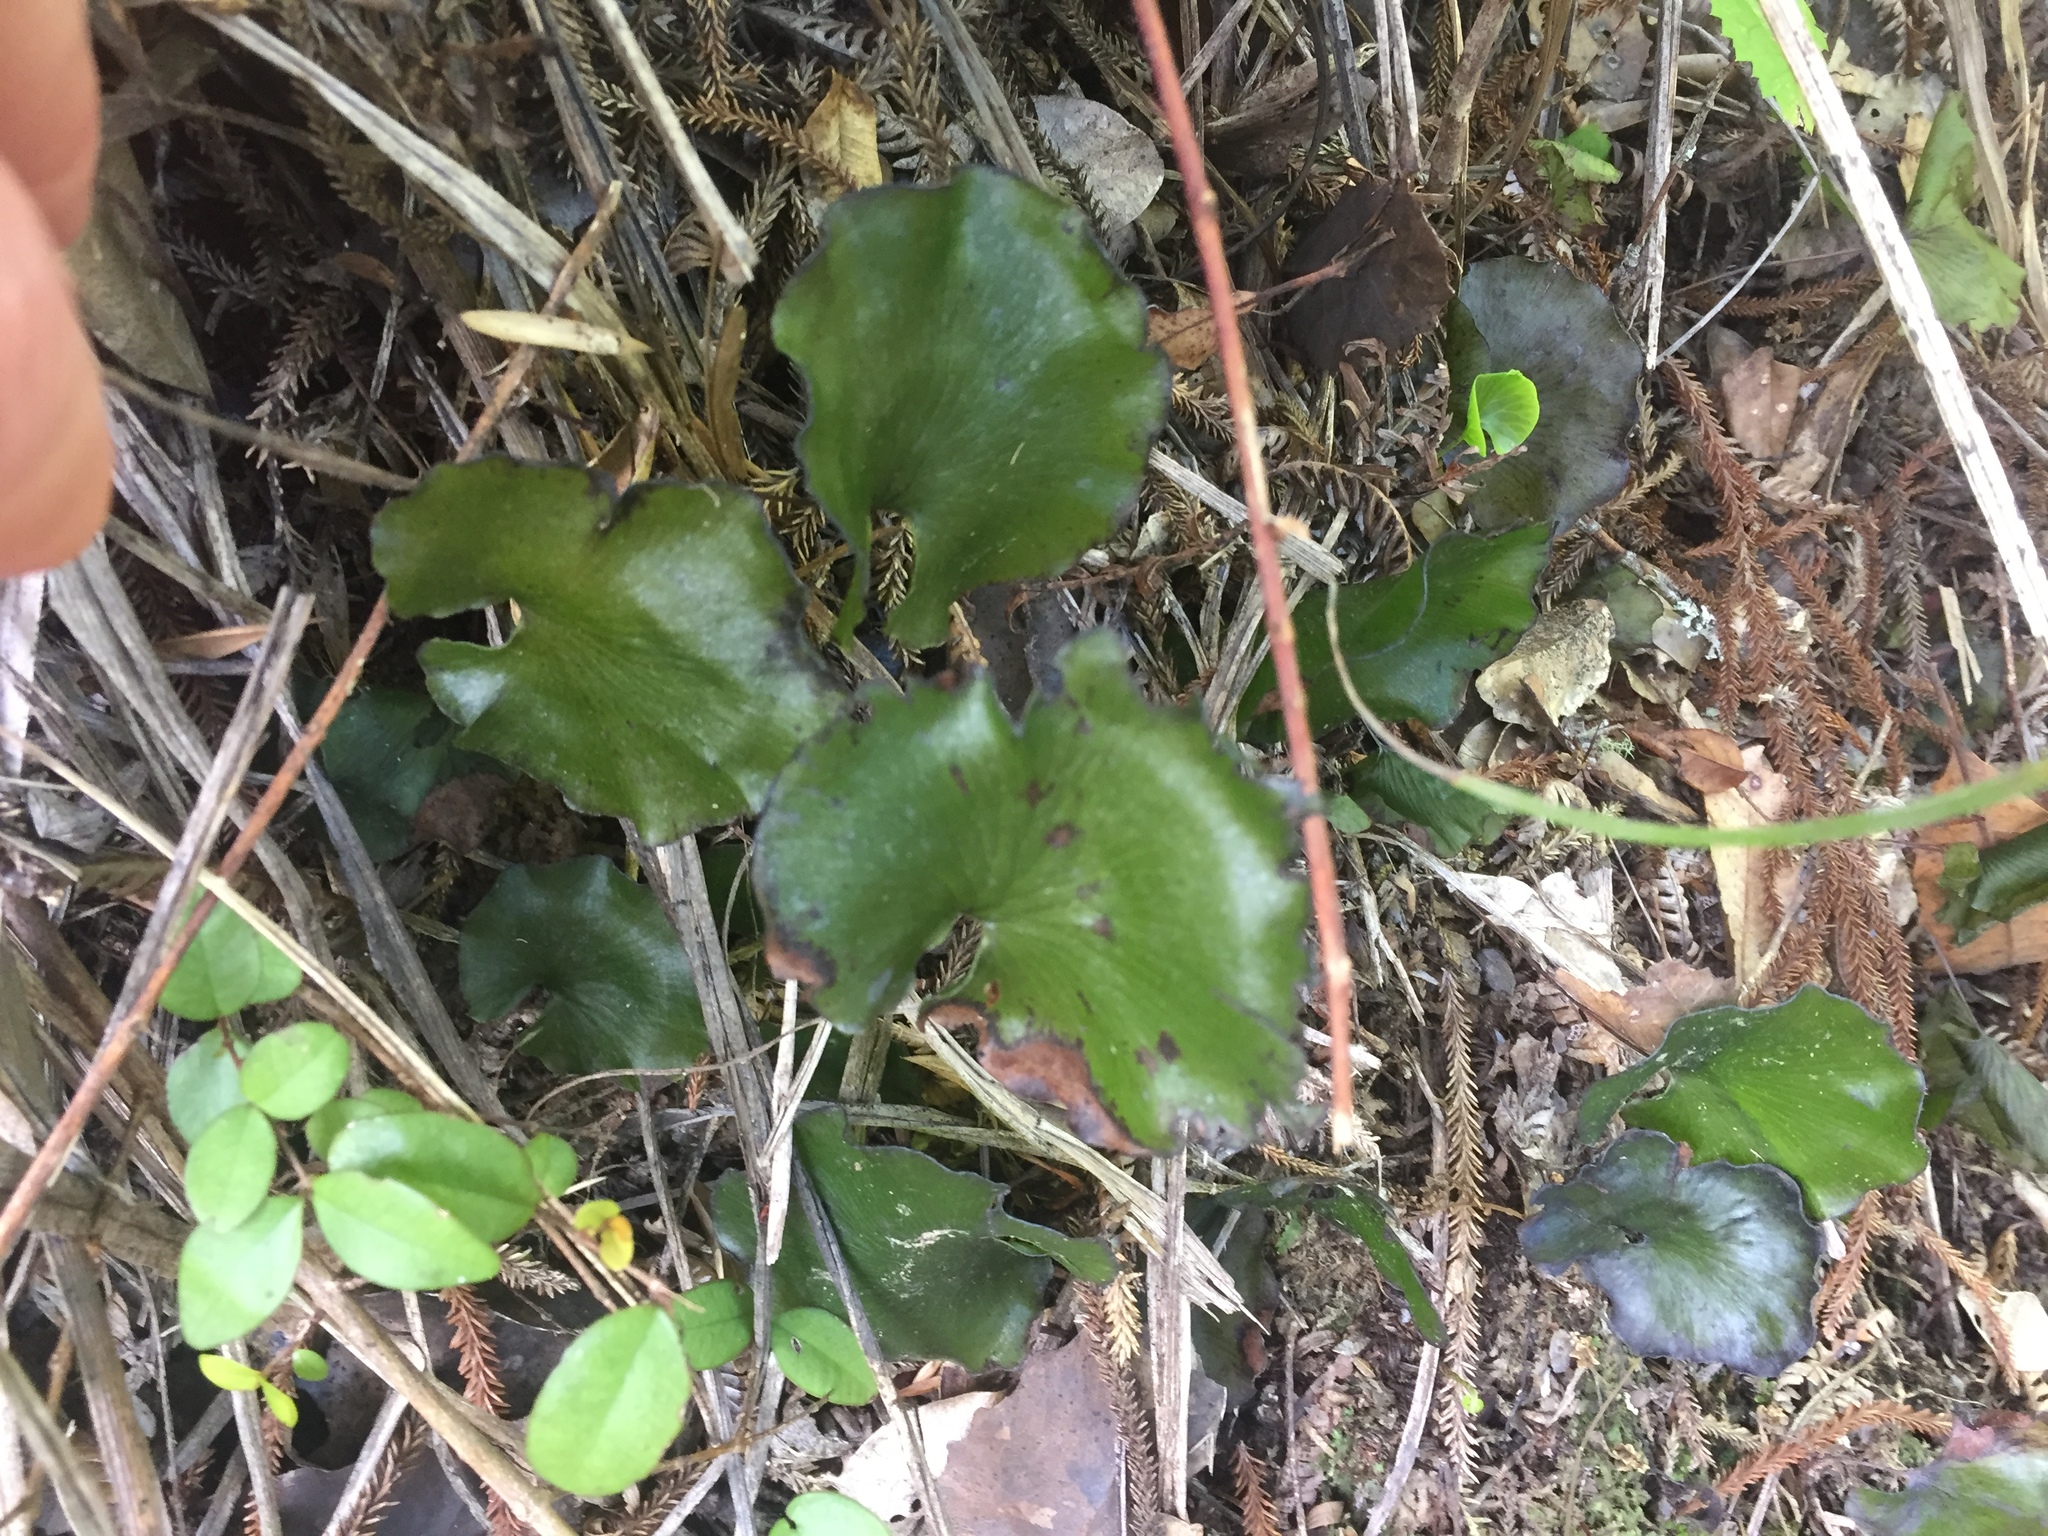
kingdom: Plantae
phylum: Tracheophyta
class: Polypodiopsida
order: Hymenophyllales
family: Hymenophyllaceae
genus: Hymenophyllum
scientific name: Hymenophyllum nephrophyllum
